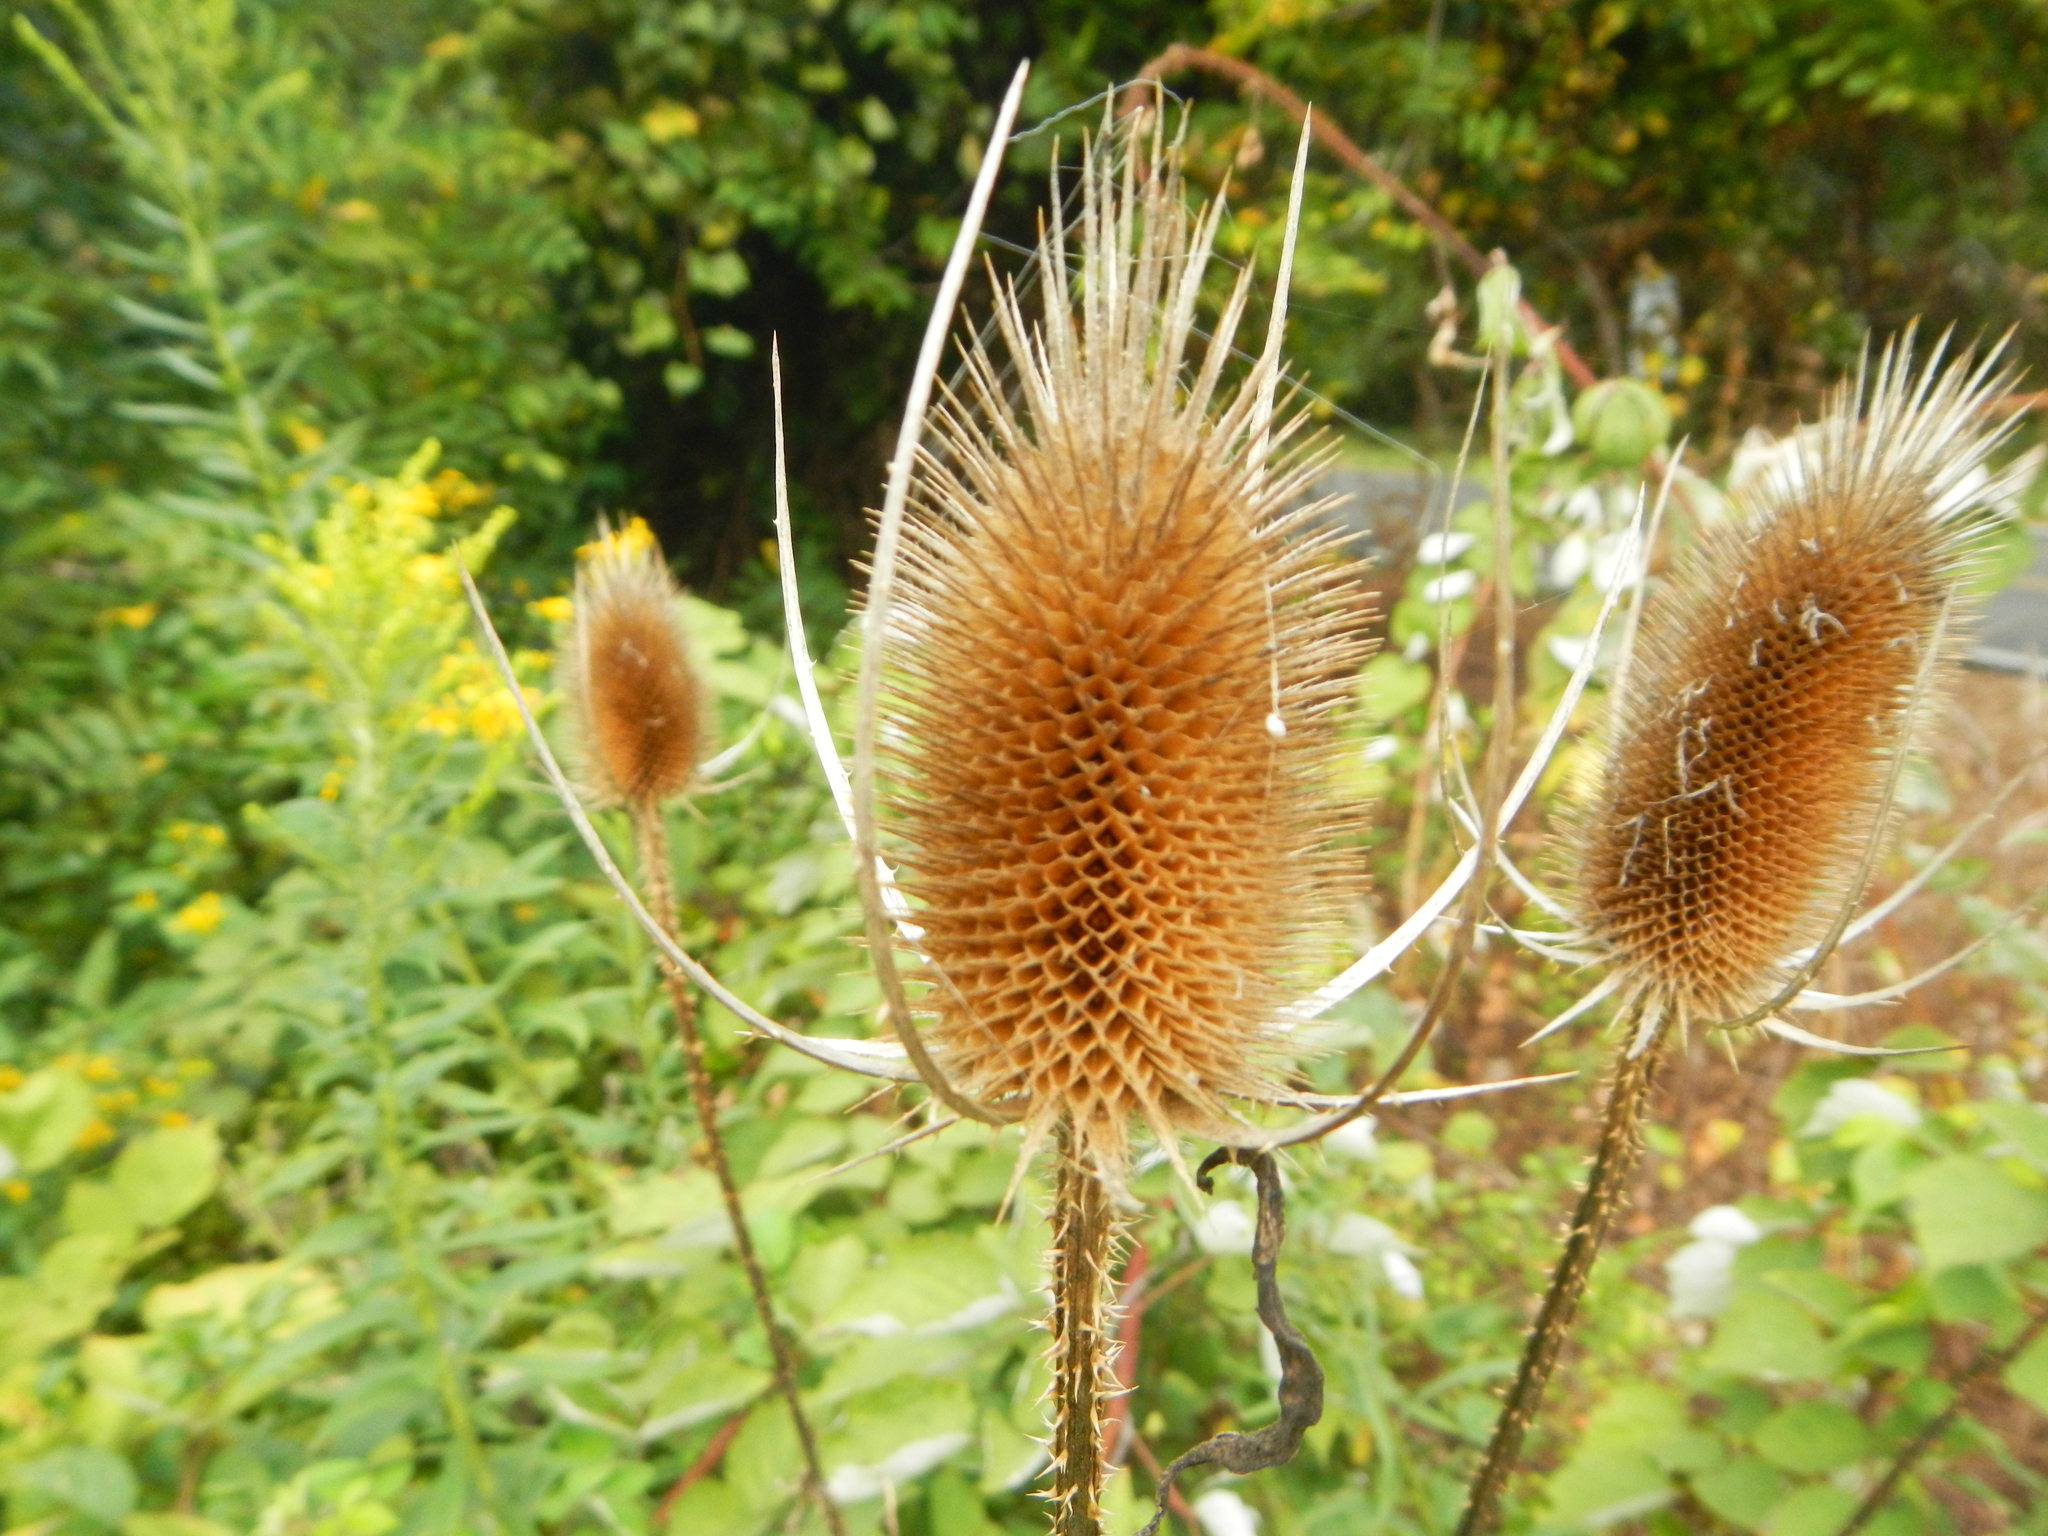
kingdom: Plantae
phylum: Tracheophyta
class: Magnoliopsida
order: Dipsacales
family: Caprifoliaceae
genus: Dipsacus
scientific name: Dipsacus fullonum
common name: Teasel
